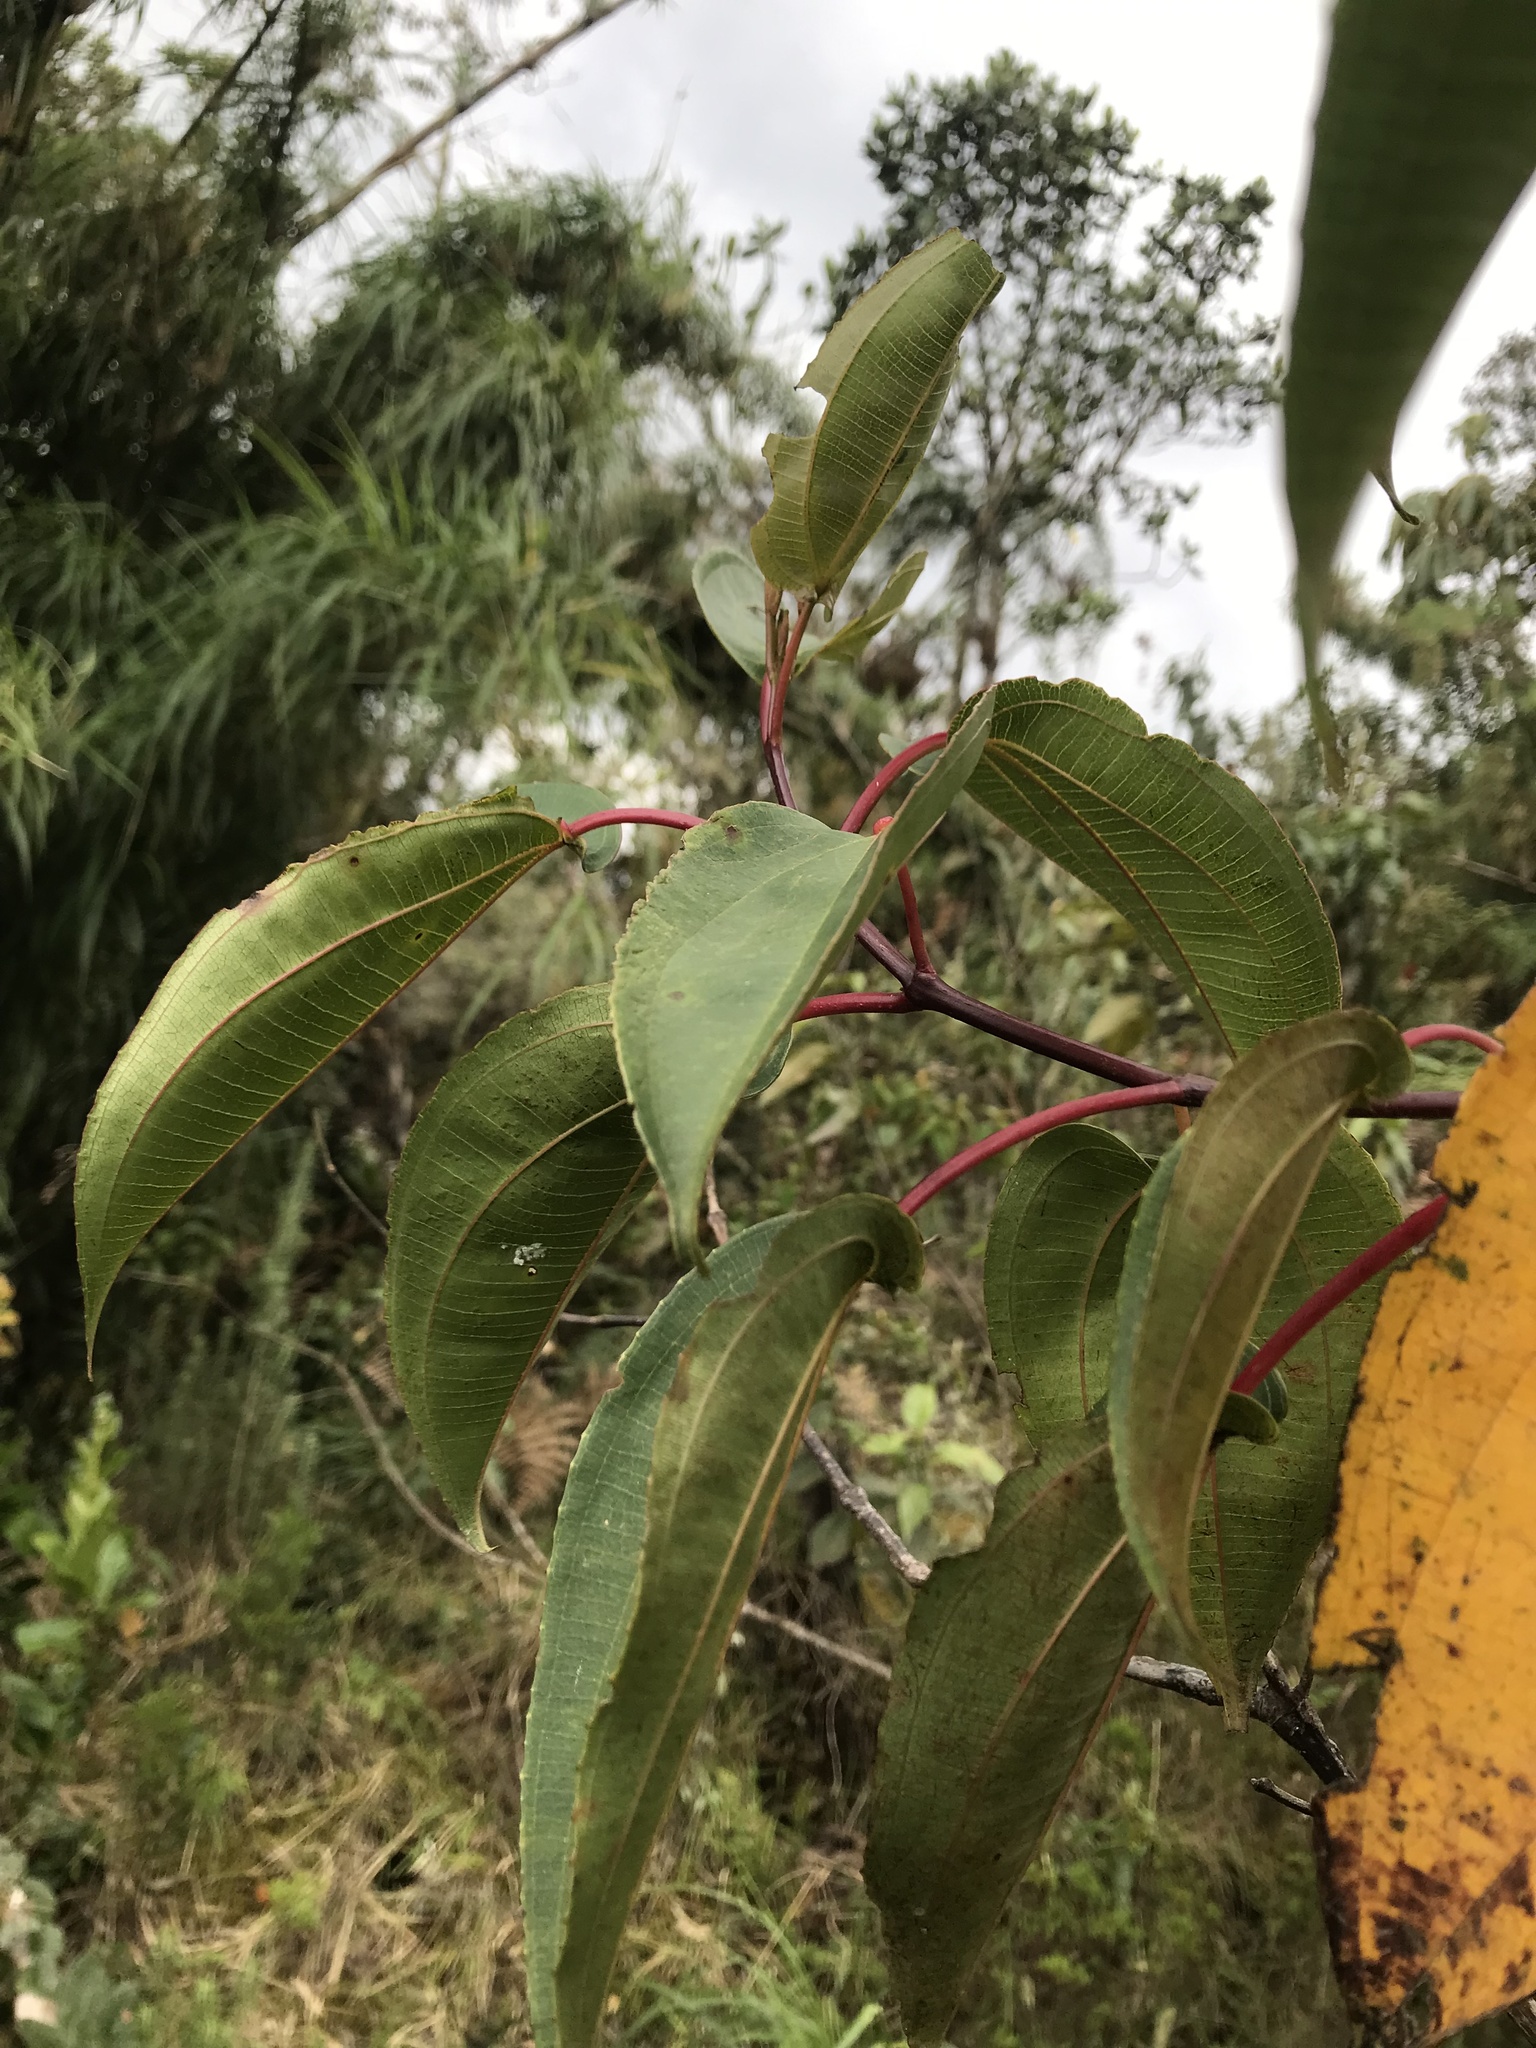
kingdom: Plantae
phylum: Tracheophyta
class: Magnoliopsida
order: Myrtales
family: Melastomataceae
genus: Axinaea
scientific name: Axinaea scutigera
